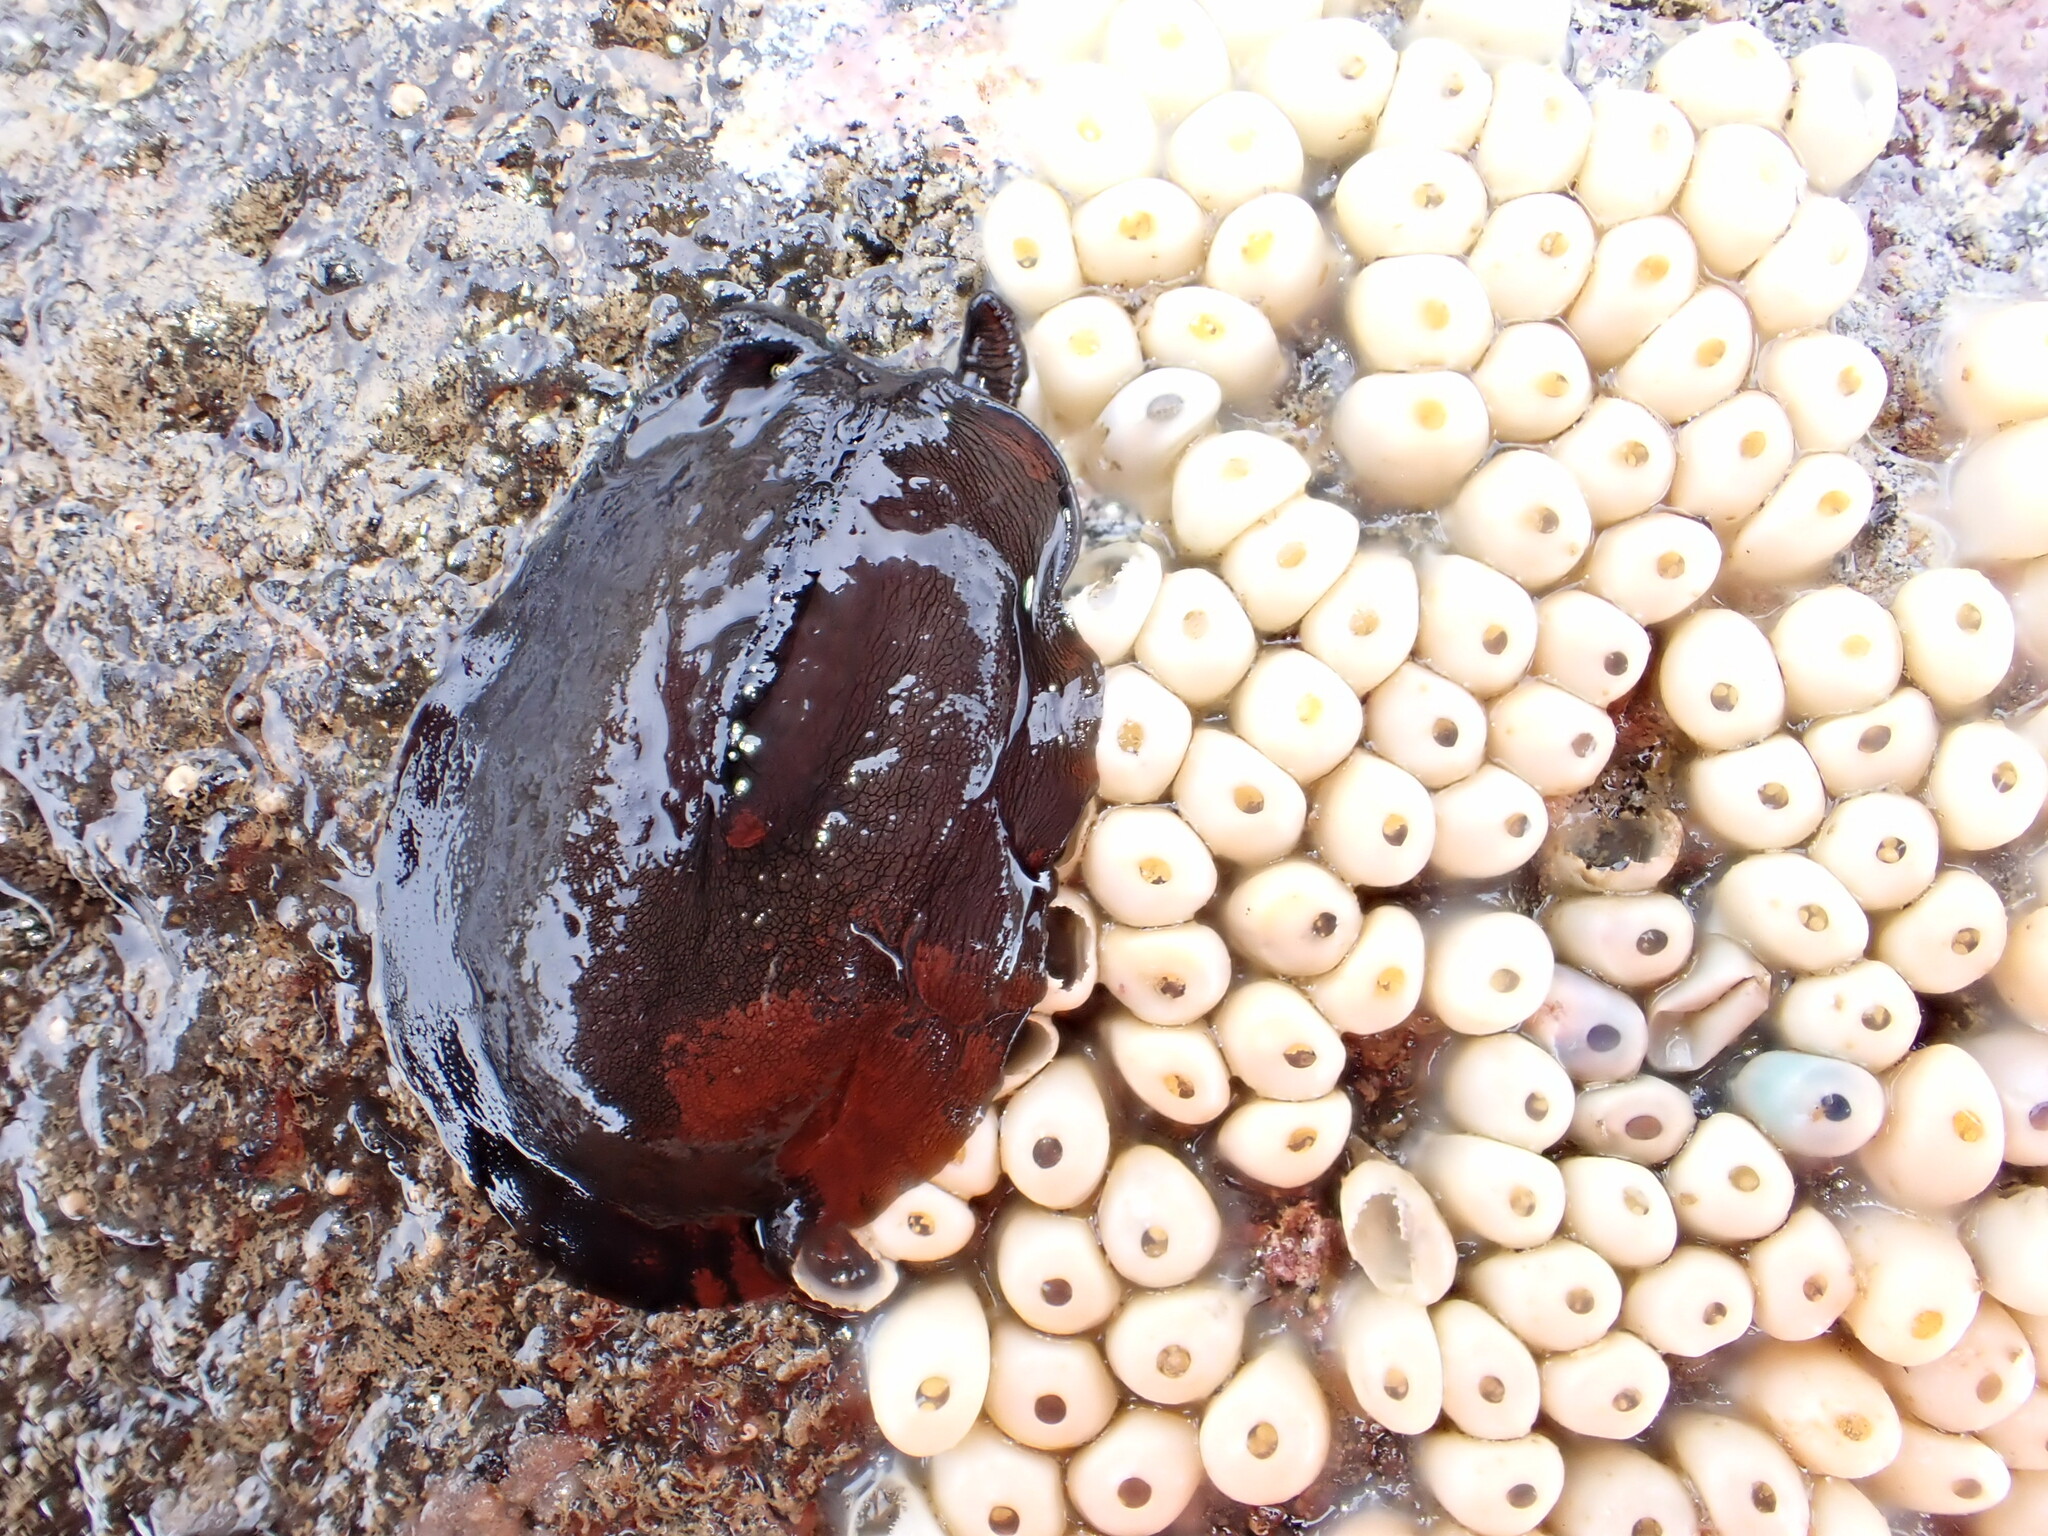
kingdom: Animalia
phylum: Mollusca
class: Gastropoda
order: Lepetellida
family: Fissurellidae
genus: Scutus
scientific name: Scutus breviculus
